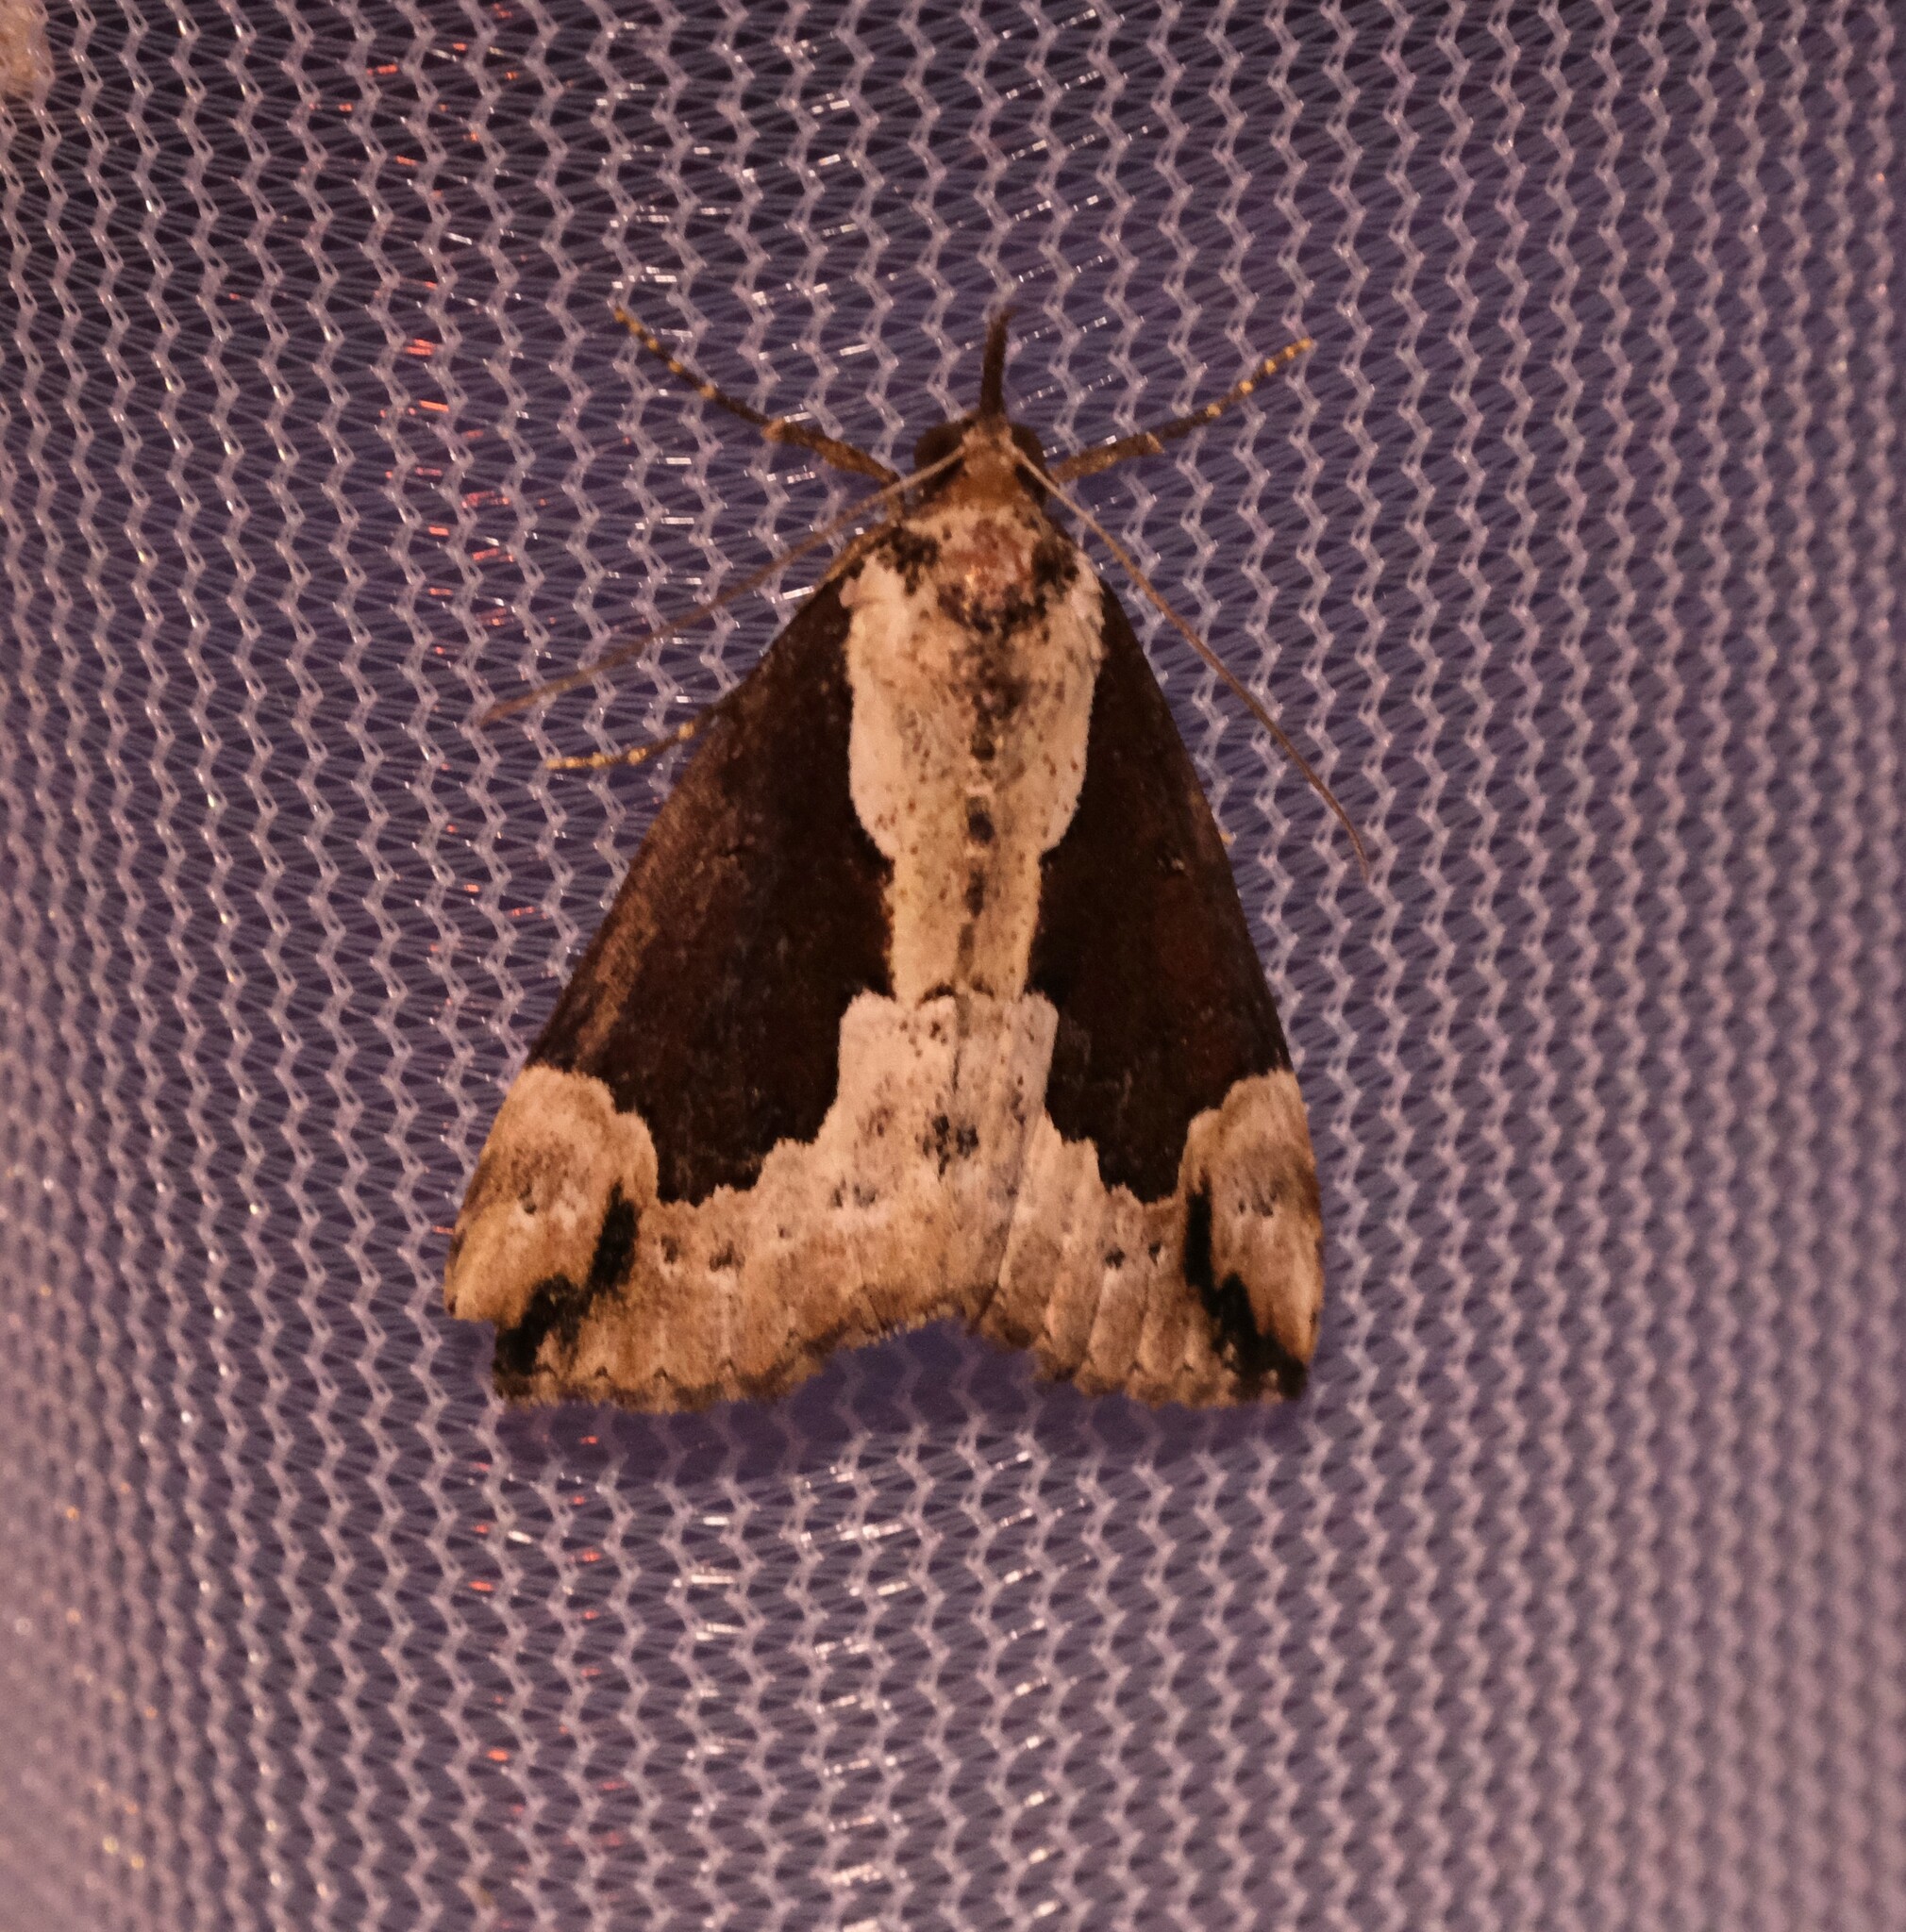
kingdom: Animalia
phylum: Arthropoda
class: Insecta
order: Lepidoptera
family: Erebidae
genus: Hypena
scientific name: Hypena baltimoralis
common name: Baltimore snout
